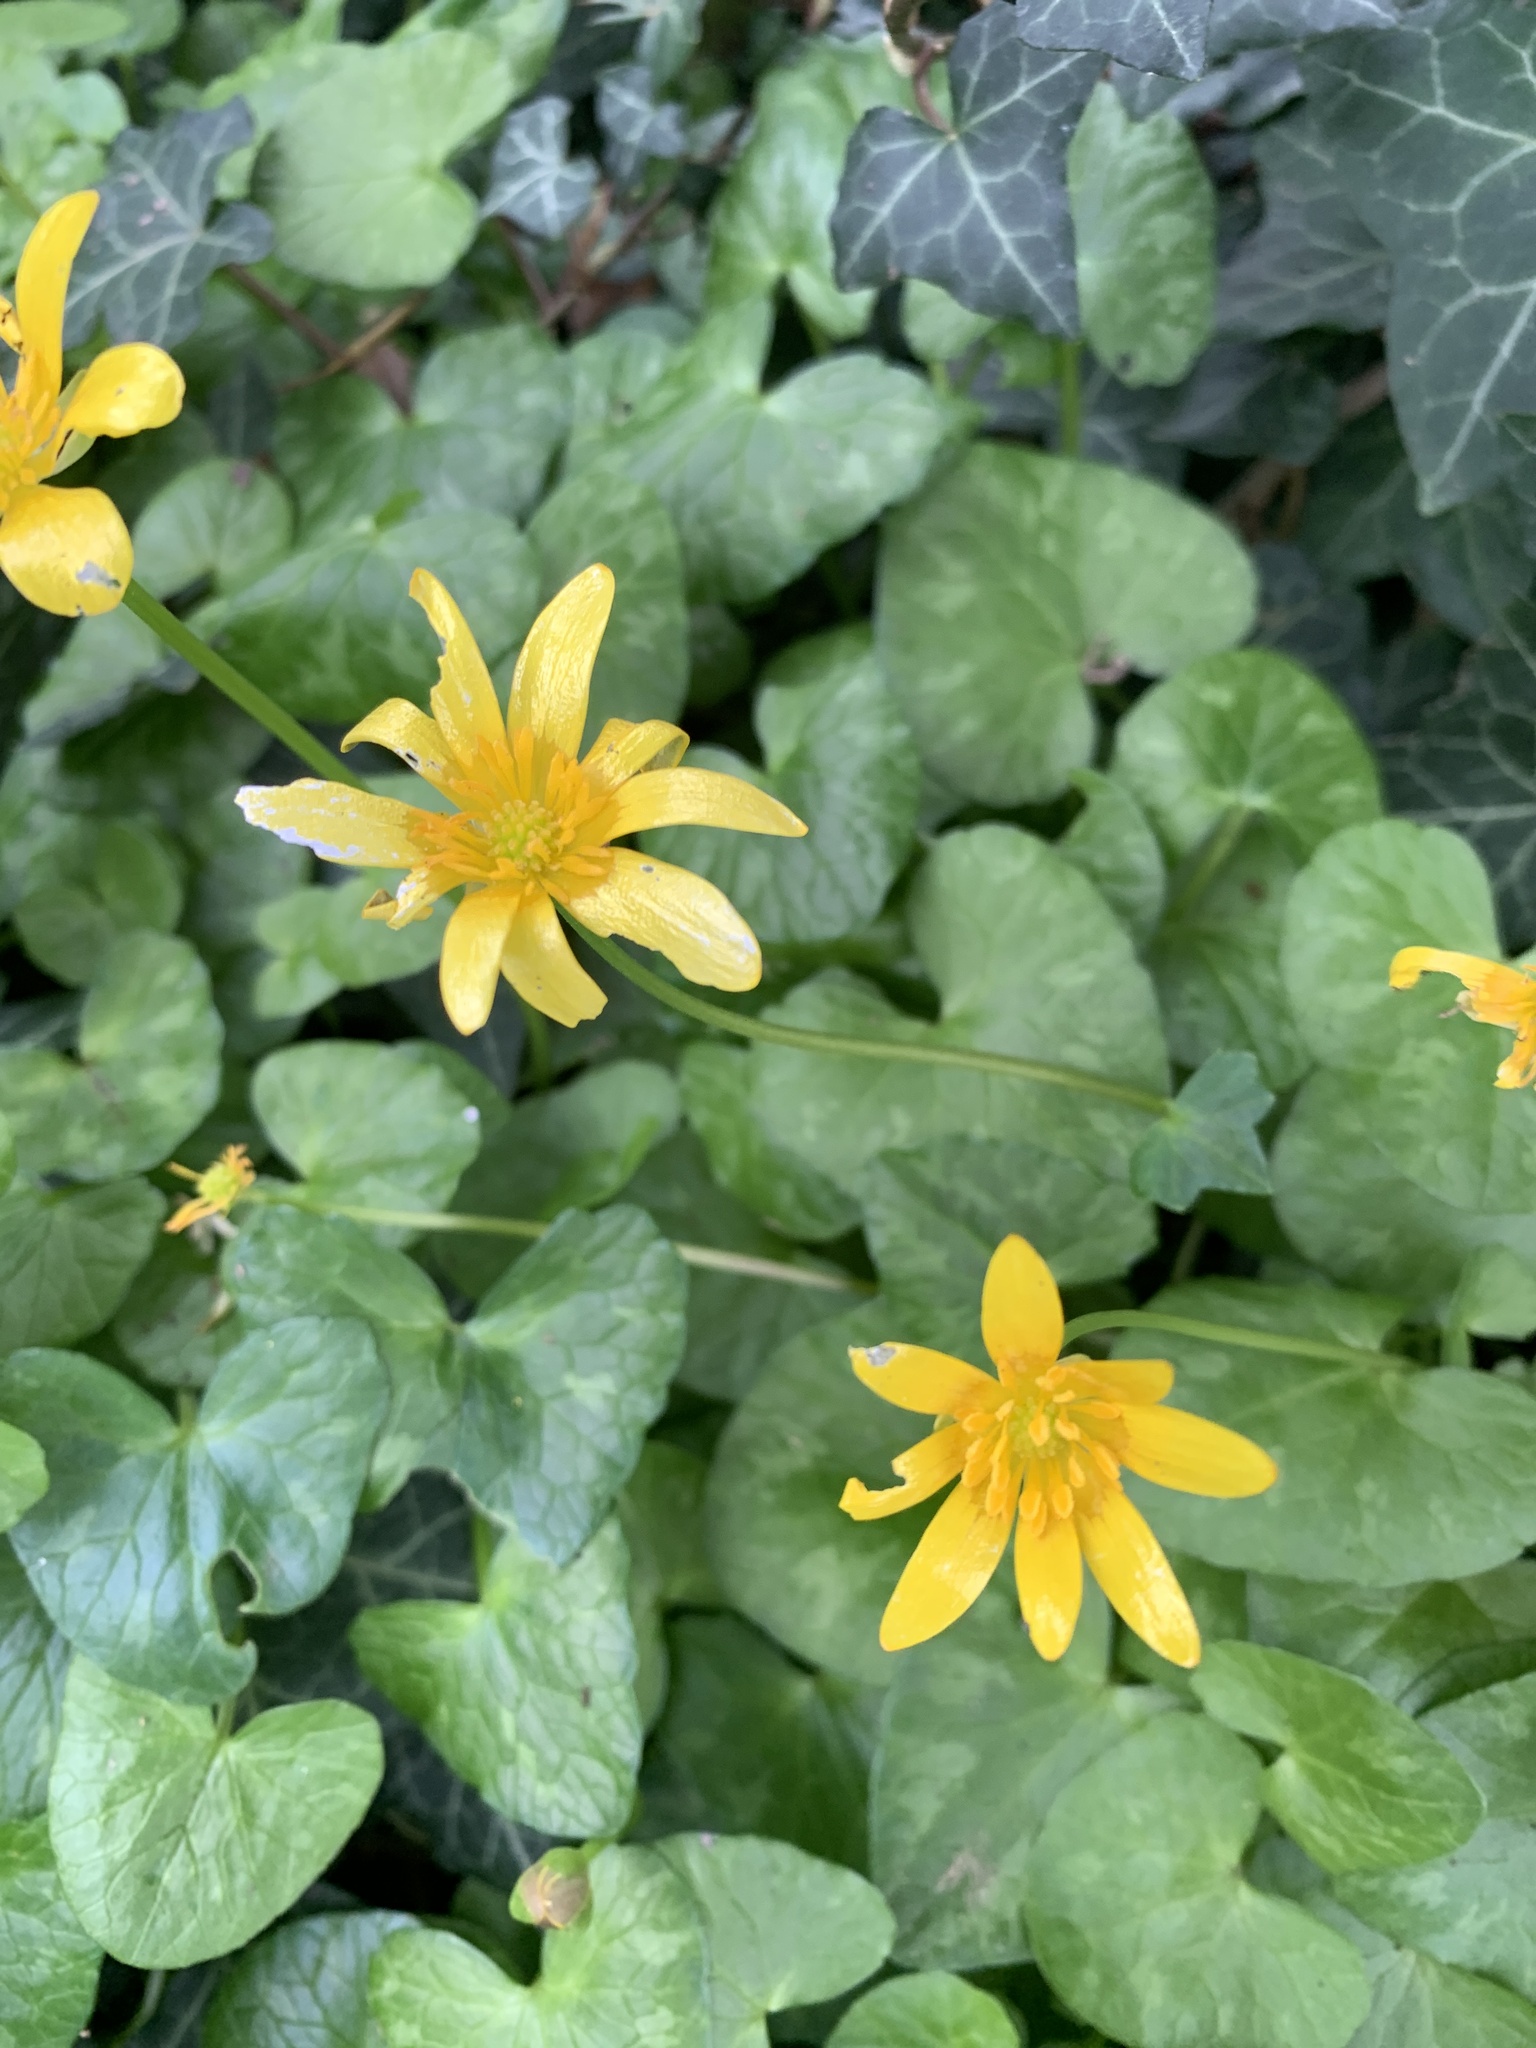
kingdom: Plantae
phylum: Tracheophyta
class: Magnoliopsida
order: Ranunculales
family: Ranunculaceae
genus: Ficaria
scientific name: Ficaria verna
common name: Lesser celandine
